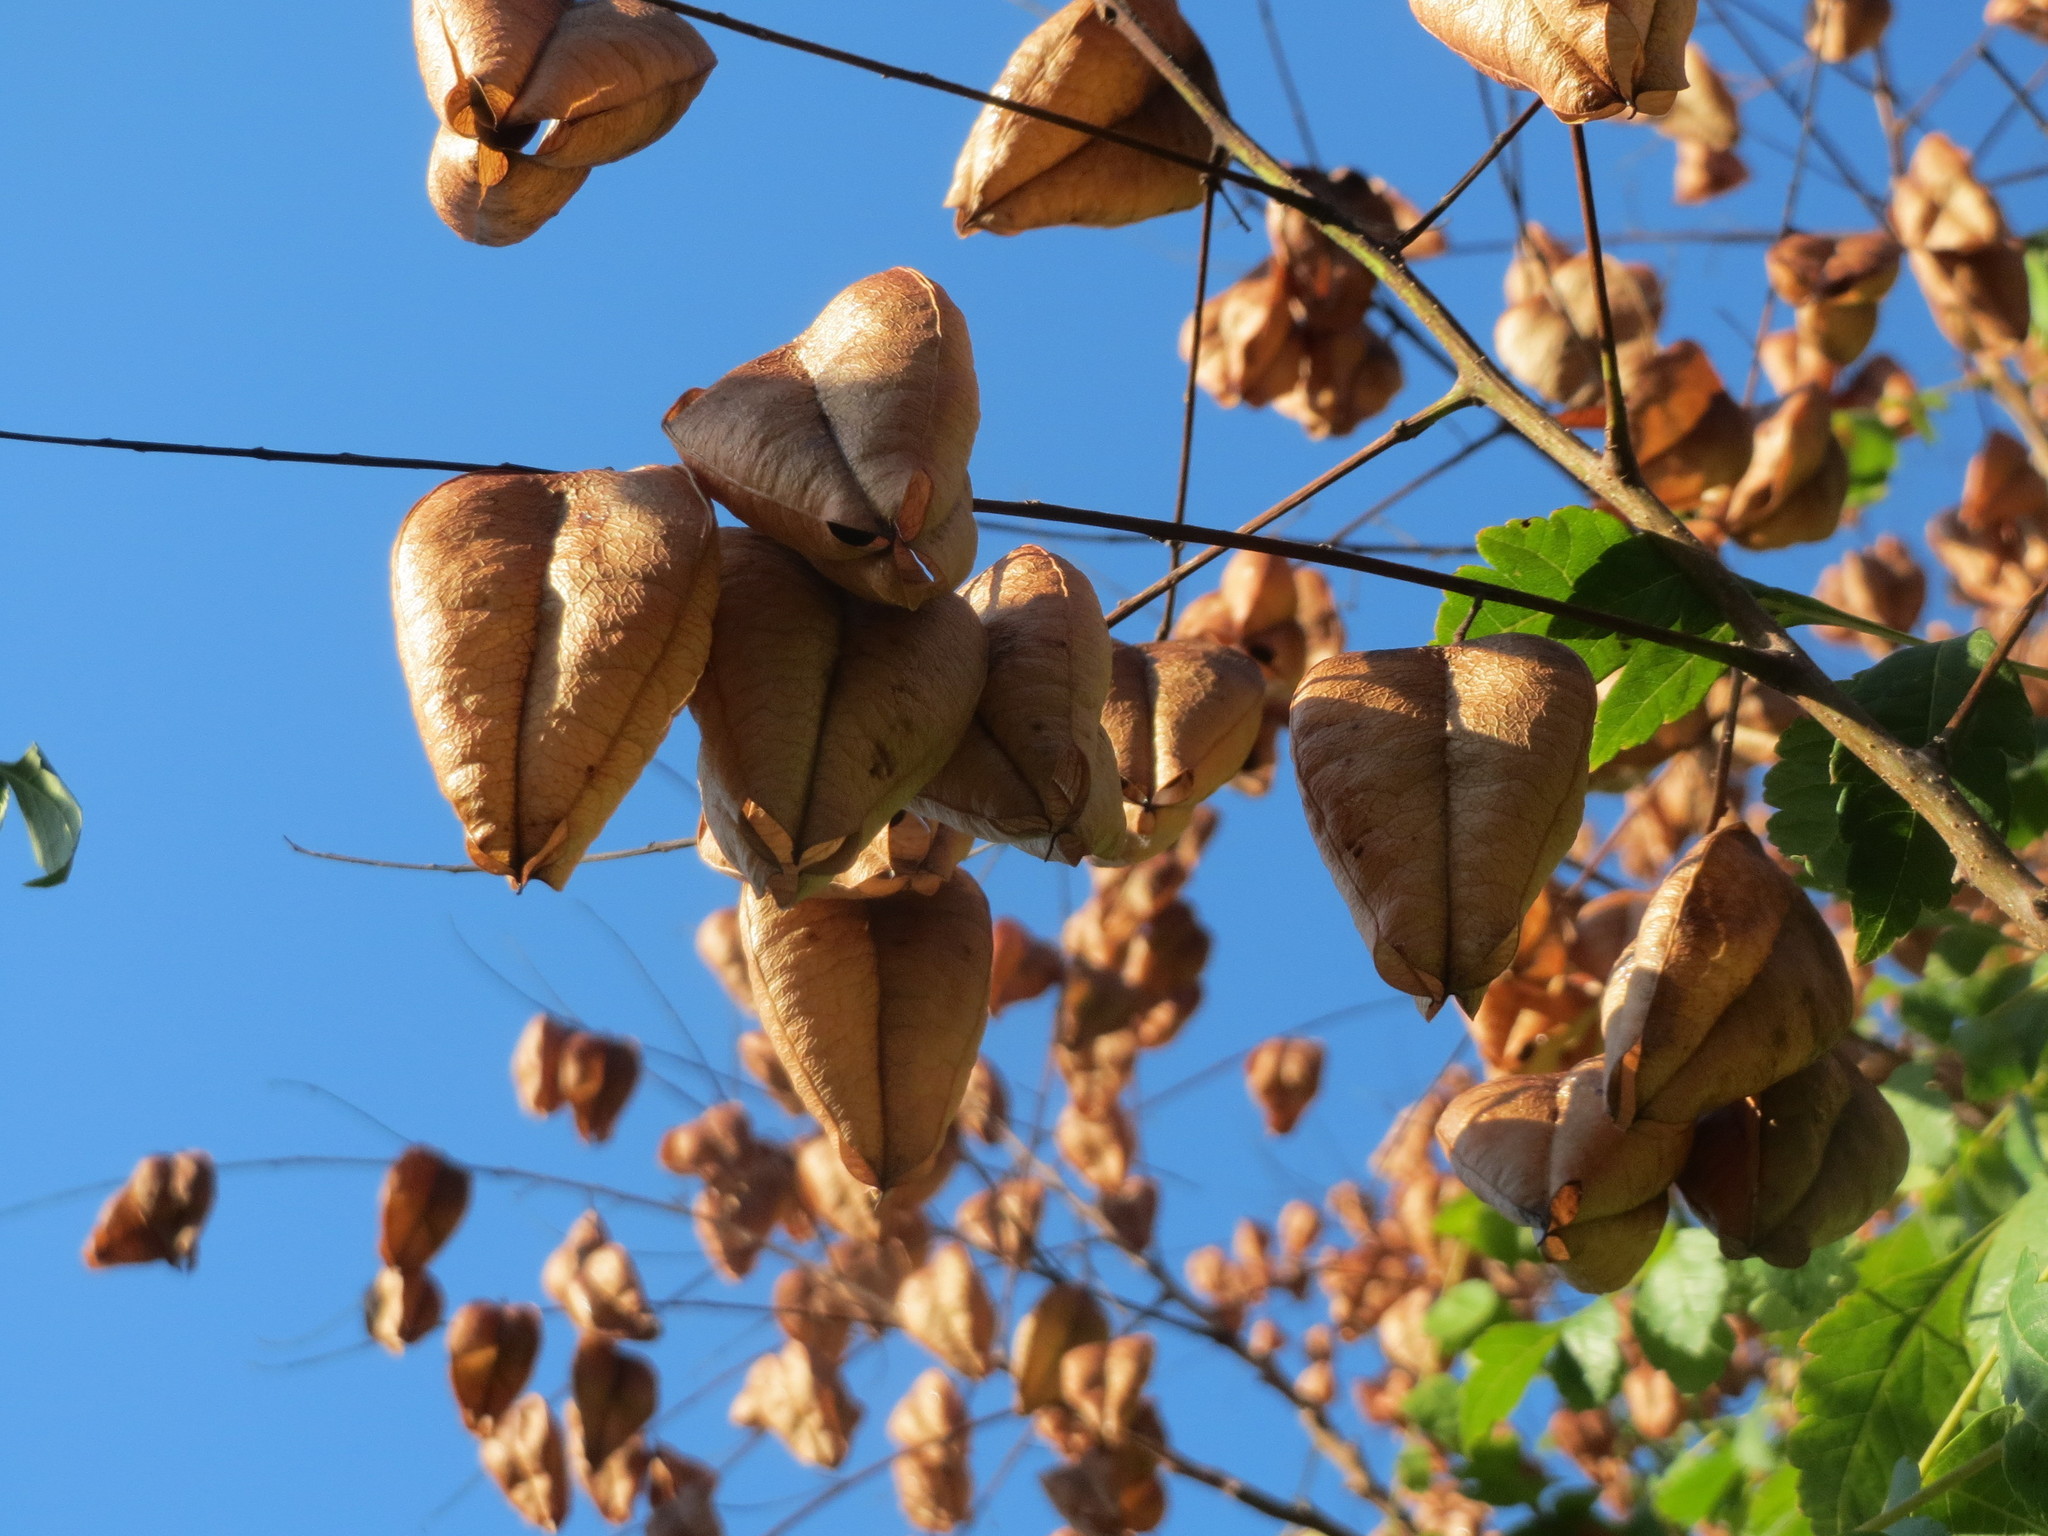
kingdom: Plantae
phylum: Tracheophyta
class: Magnoliopsida
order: Sapindales
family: Sapindaceae
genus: Koelreuteria
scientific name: Koelreuteria paniculata
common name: Pride-of-india
